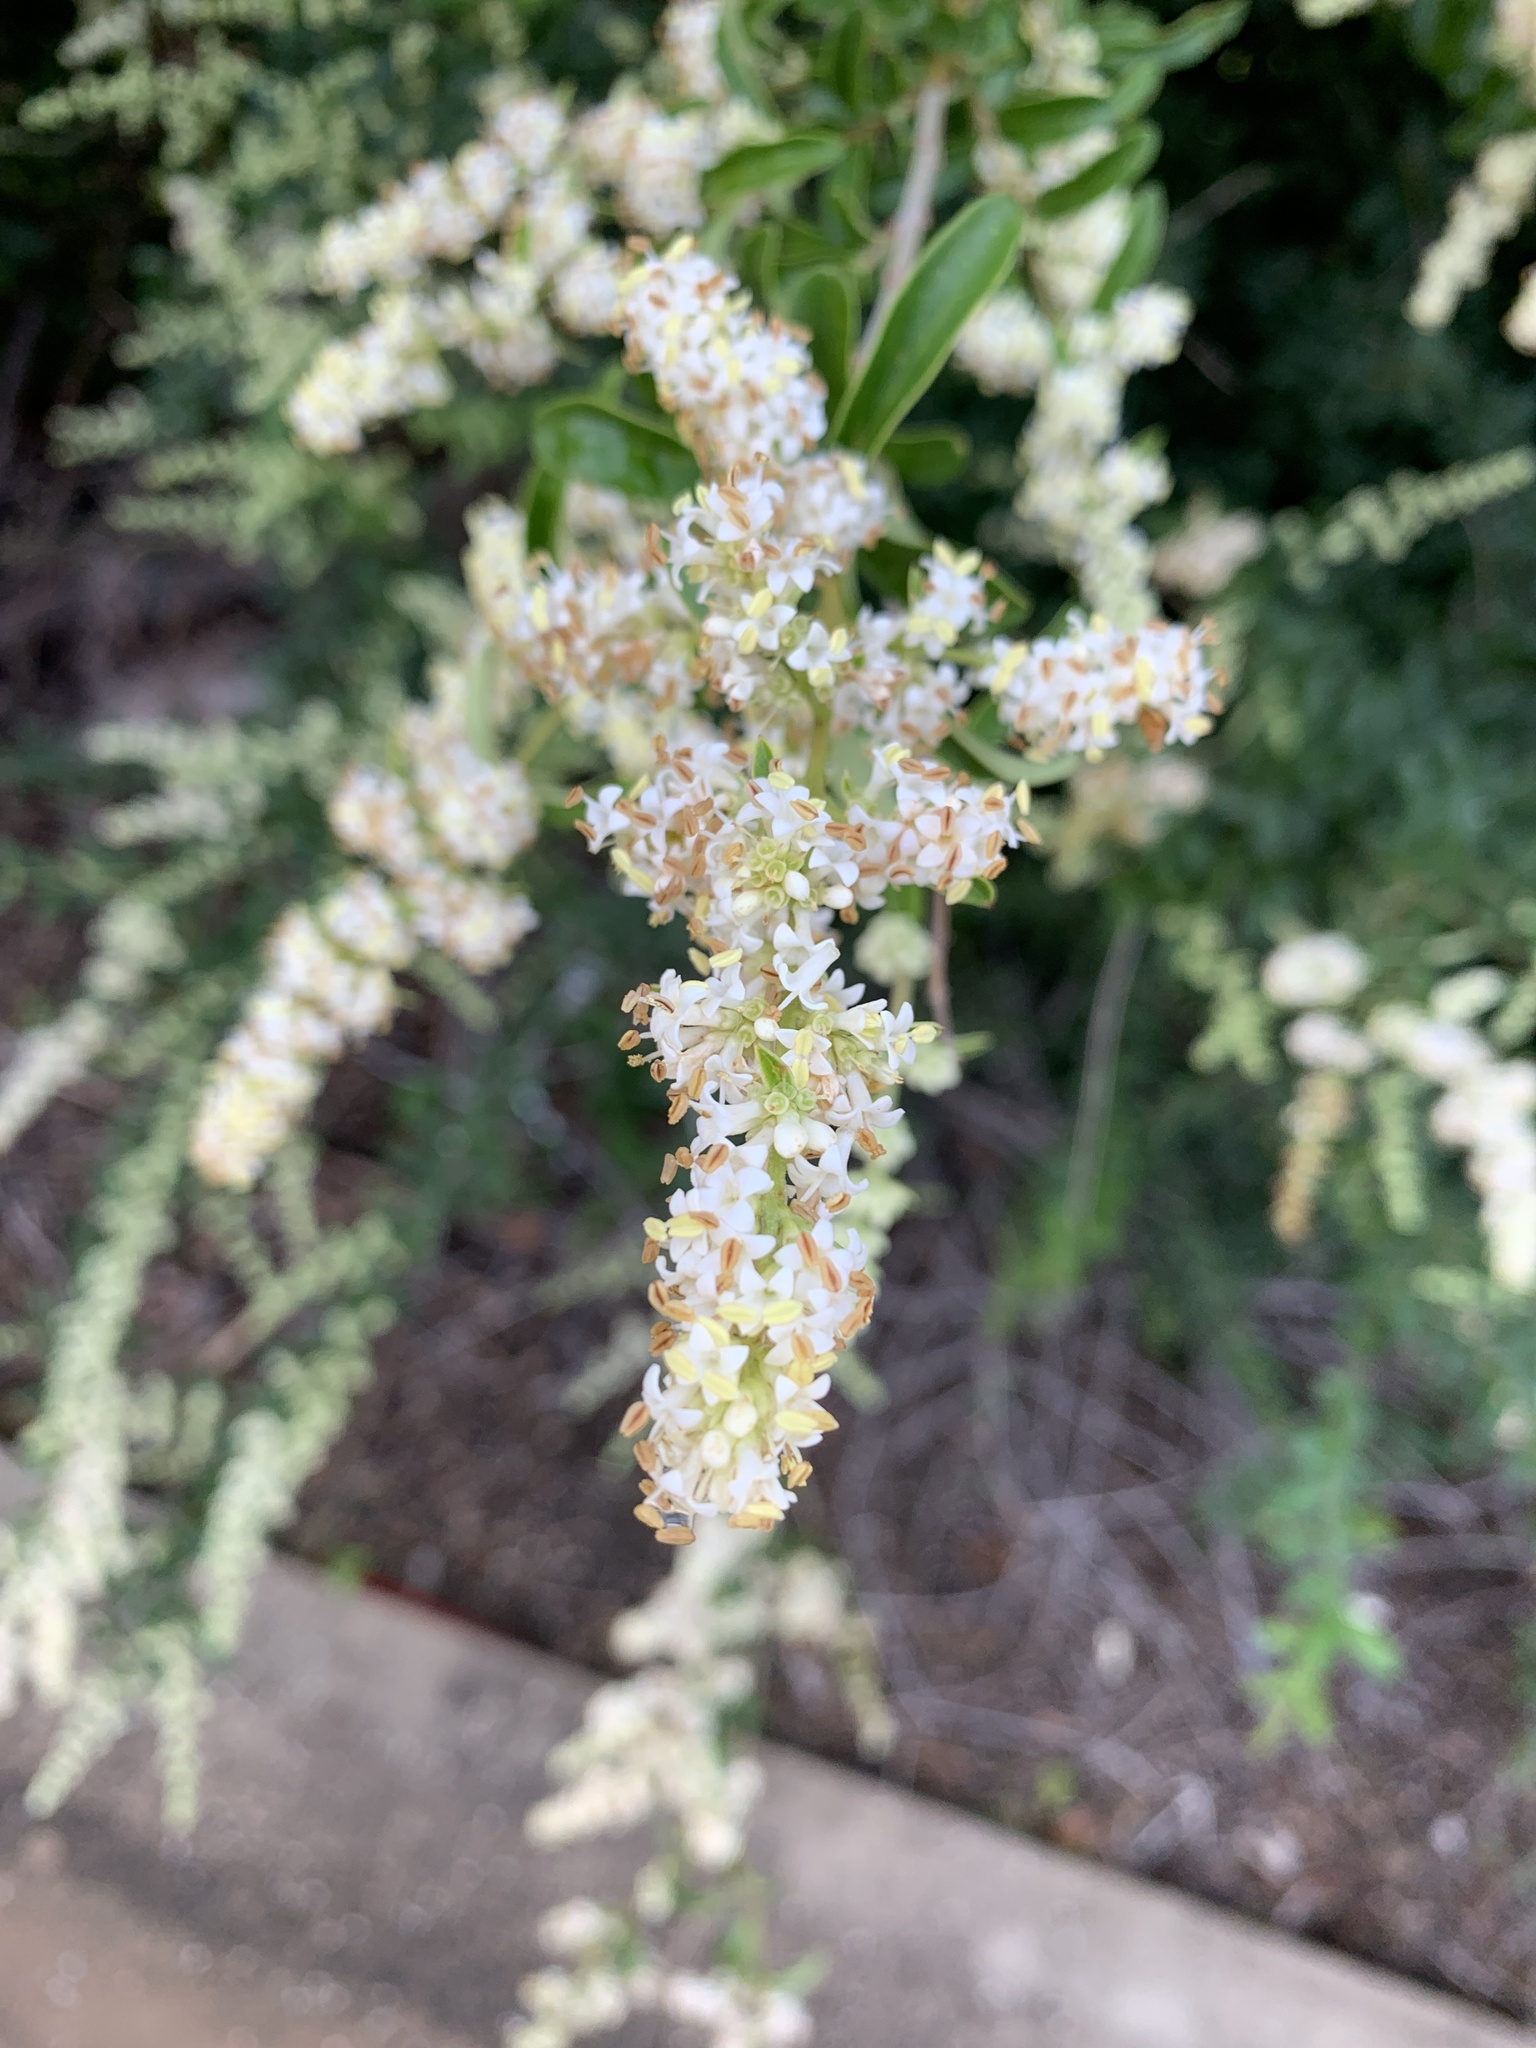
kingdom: Plantae
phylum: Tracheophyta
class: Magnoliopsida
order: Lamiales
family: Oleaceae
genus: Ligustrum
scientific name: Ligustrum quihoui
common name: Waxyleaf privet
